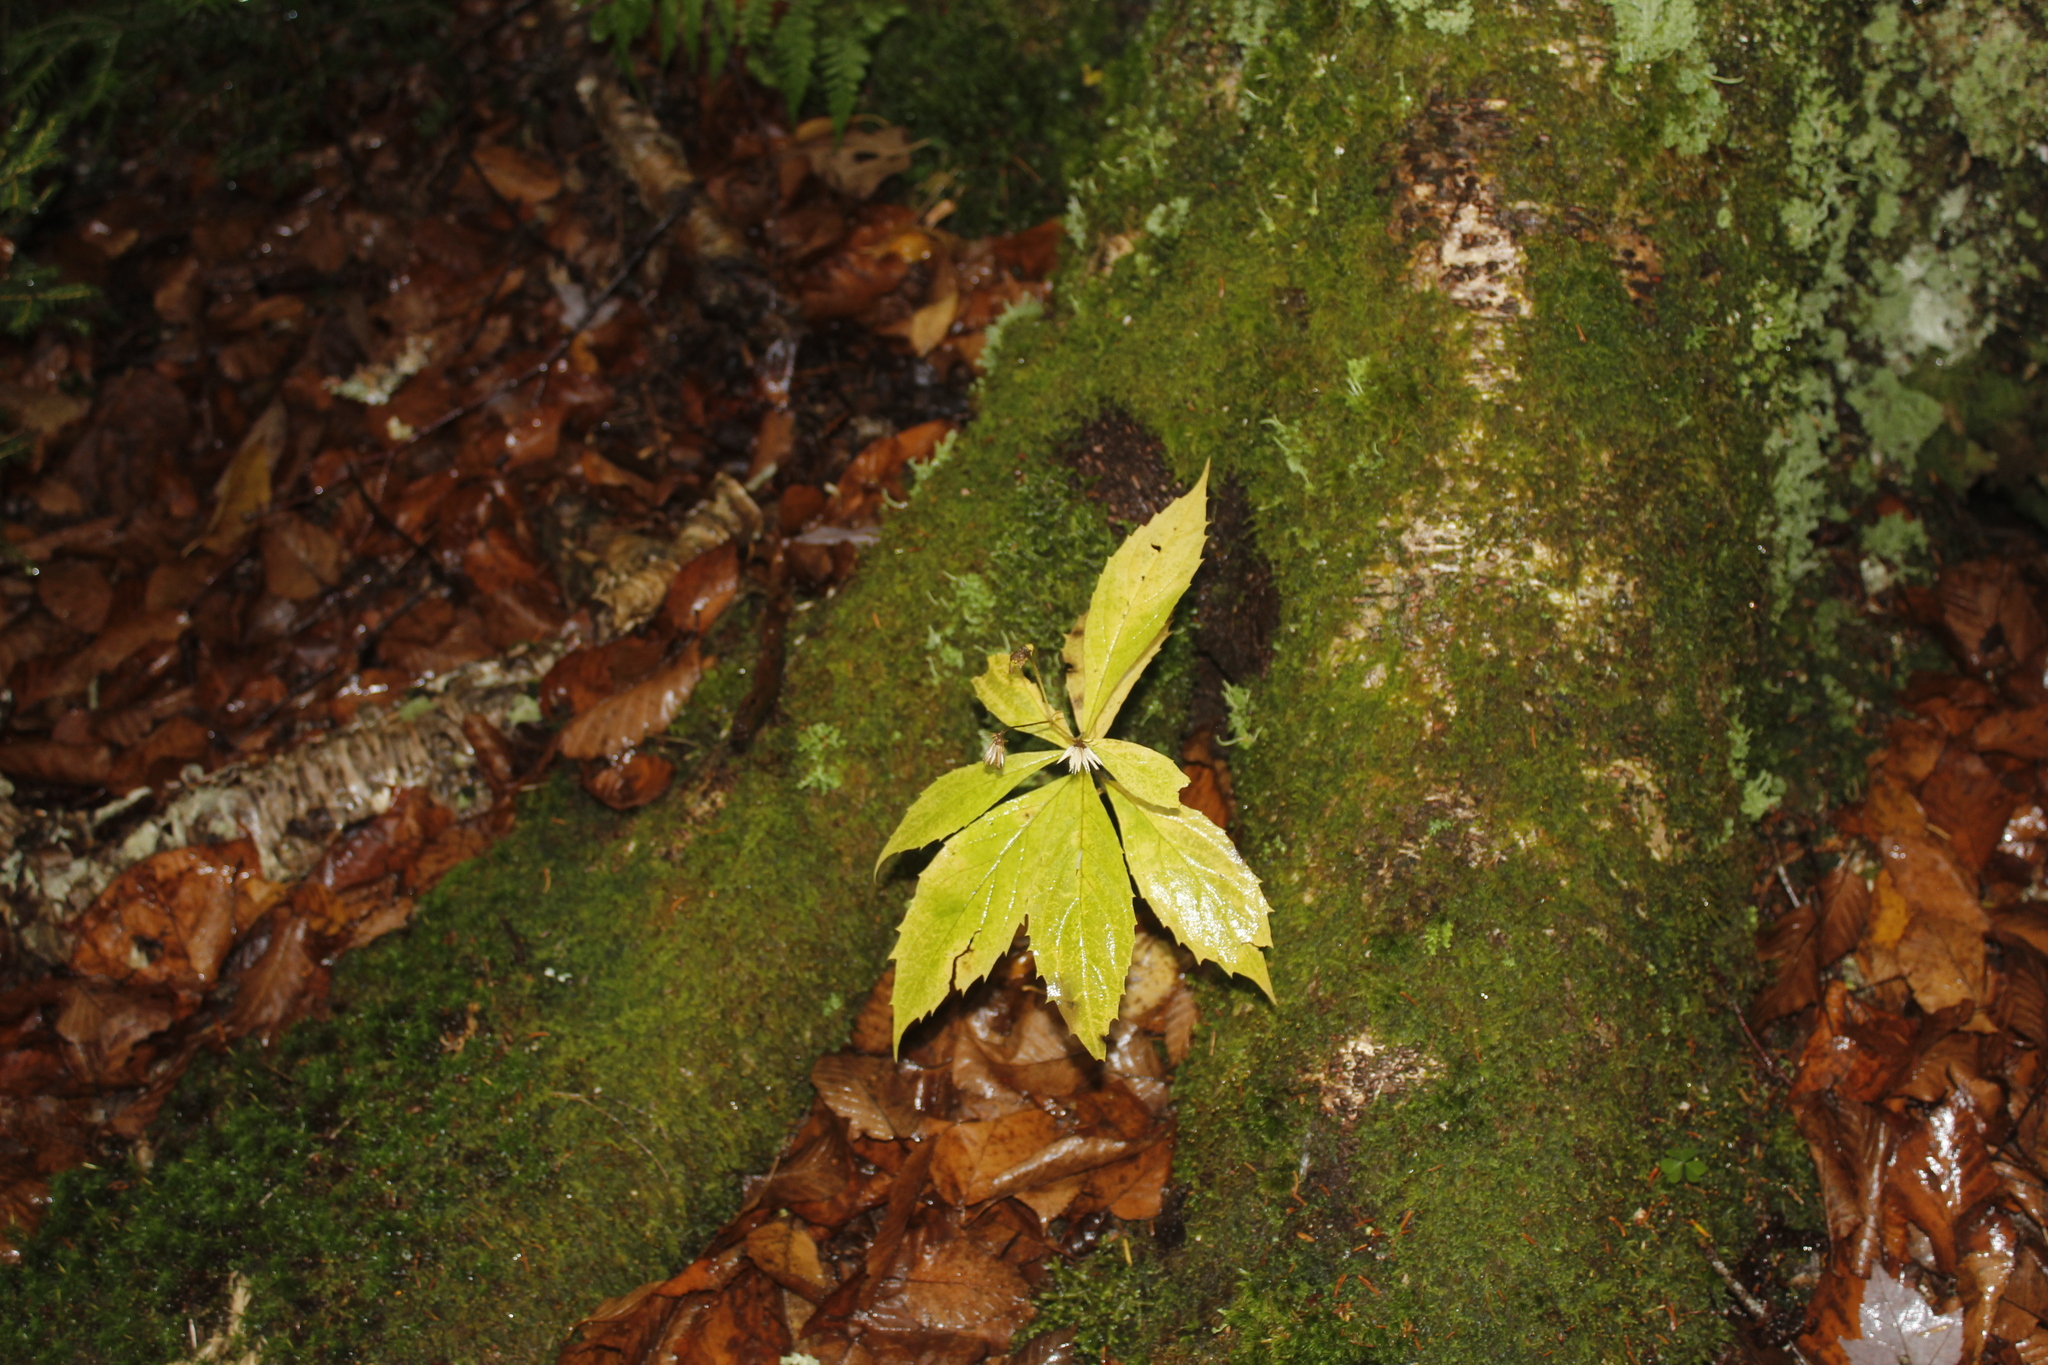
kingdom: Plantae
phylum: Tracheophyta
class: Magnoliopsida
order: Asterales
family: Asteraceae
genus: Oclemena
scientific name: Oclemena acuminata
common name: Mountain aster
